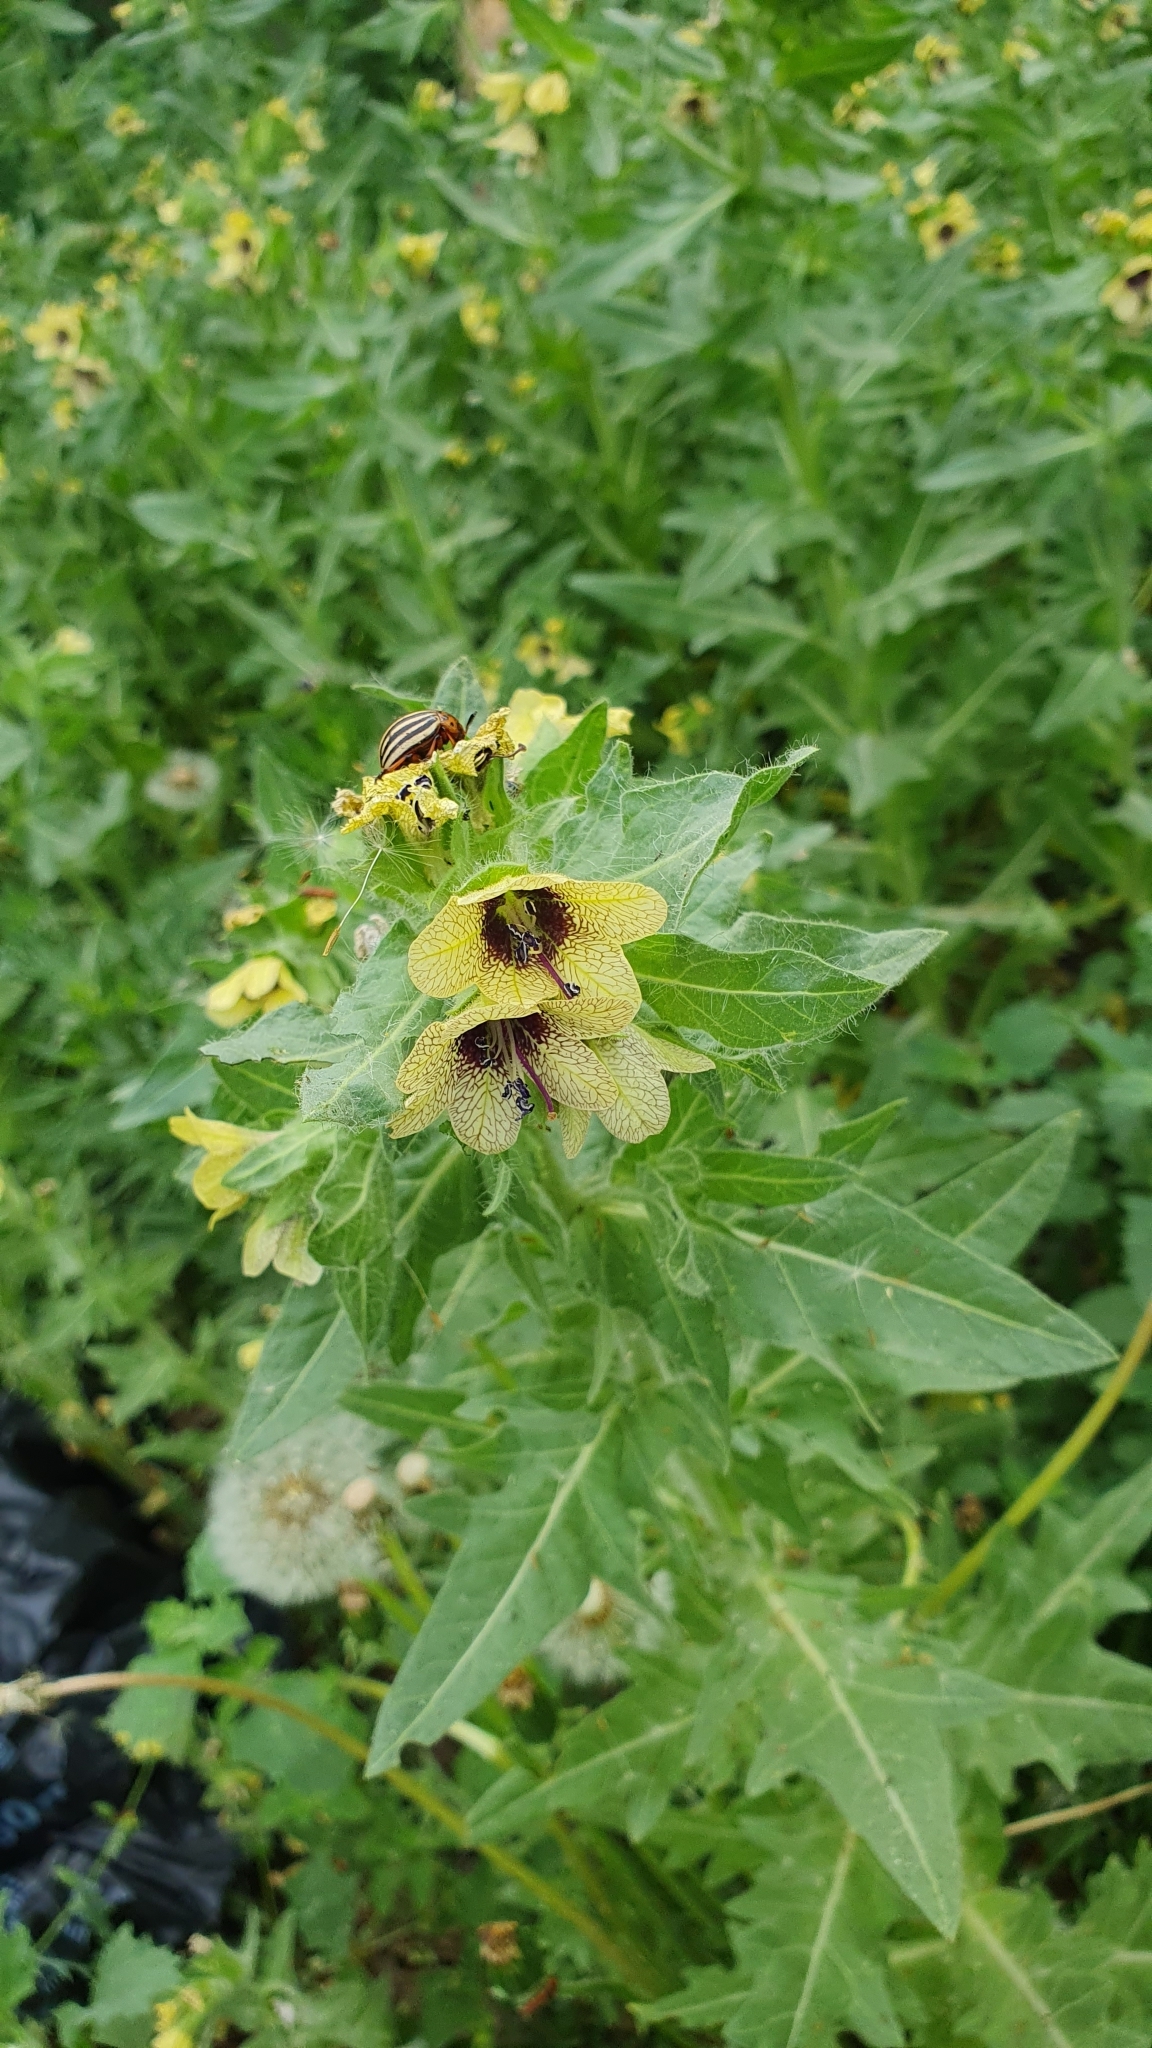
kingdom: Plantae
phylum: Tracheophyta
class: Magnoliopsida
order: Solanales
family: Solanaceae
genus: Hyoscyamus
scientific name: Hyoscyamus niger
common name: Henbane
